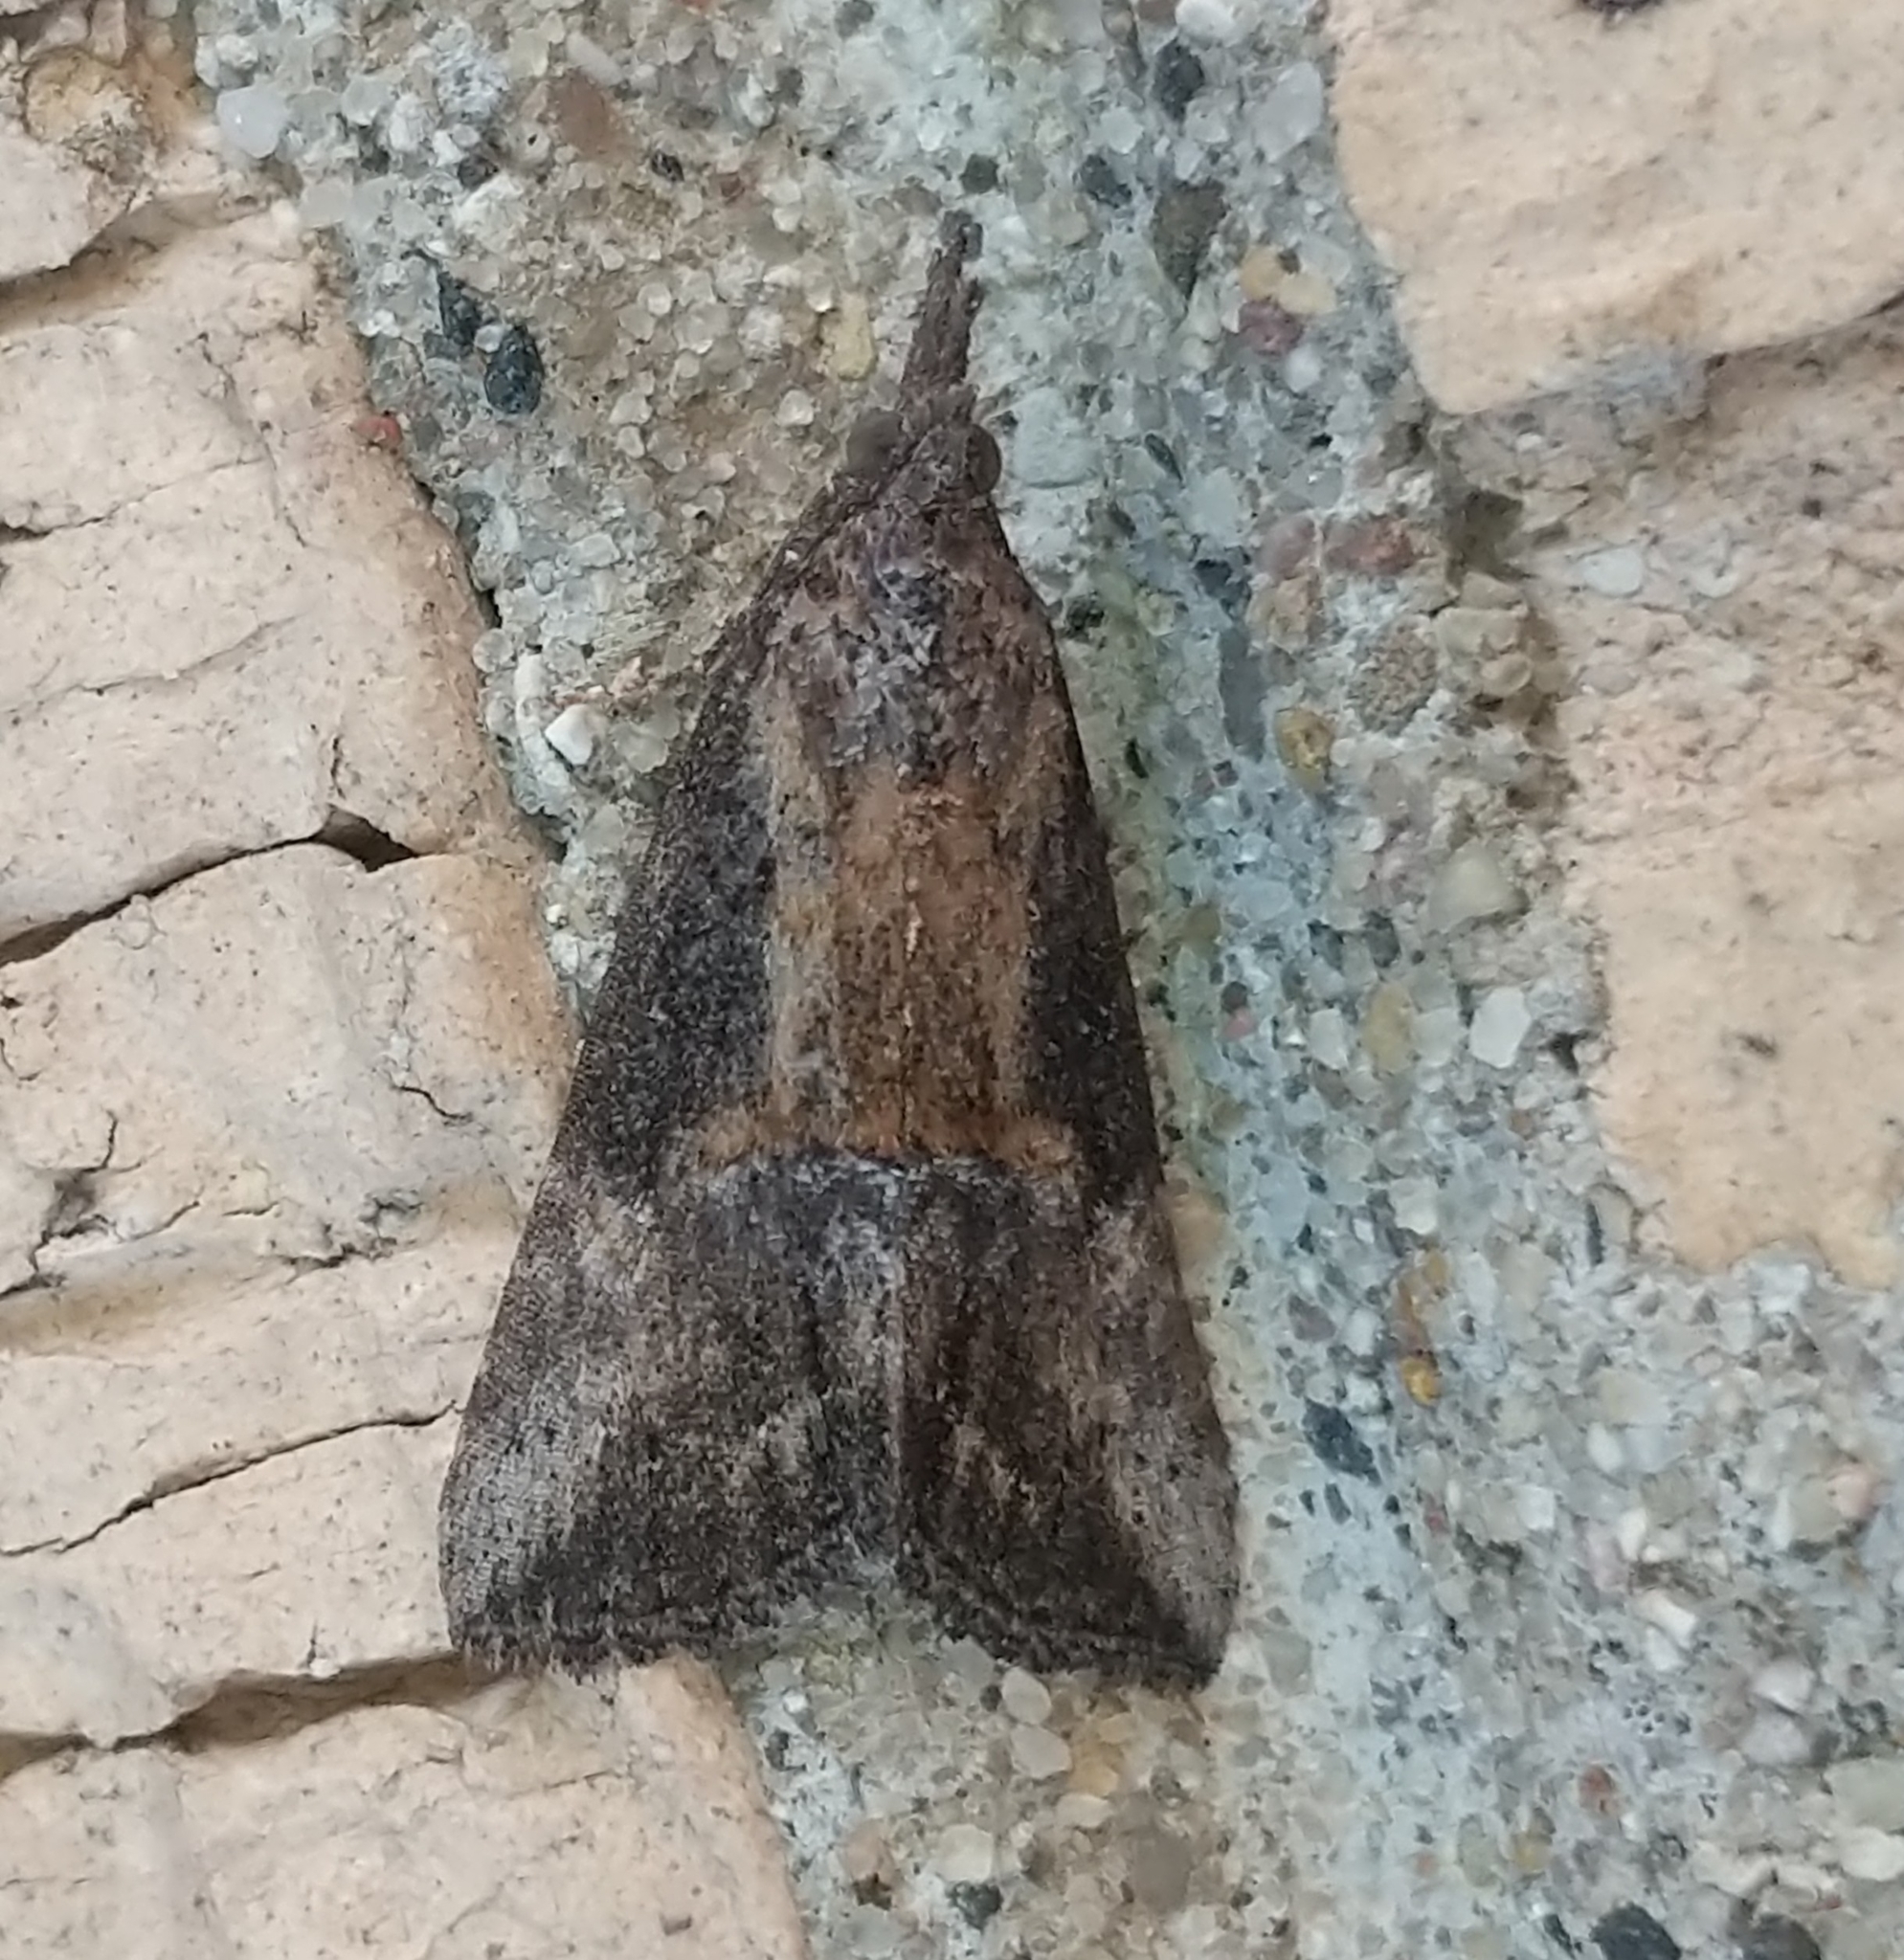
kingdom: Animalia
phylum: Arthropoda
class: Insecta
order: Lepidoptera
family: Erebidae
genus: Hypena
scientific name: Hypena scabra
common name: Green cloverworm
